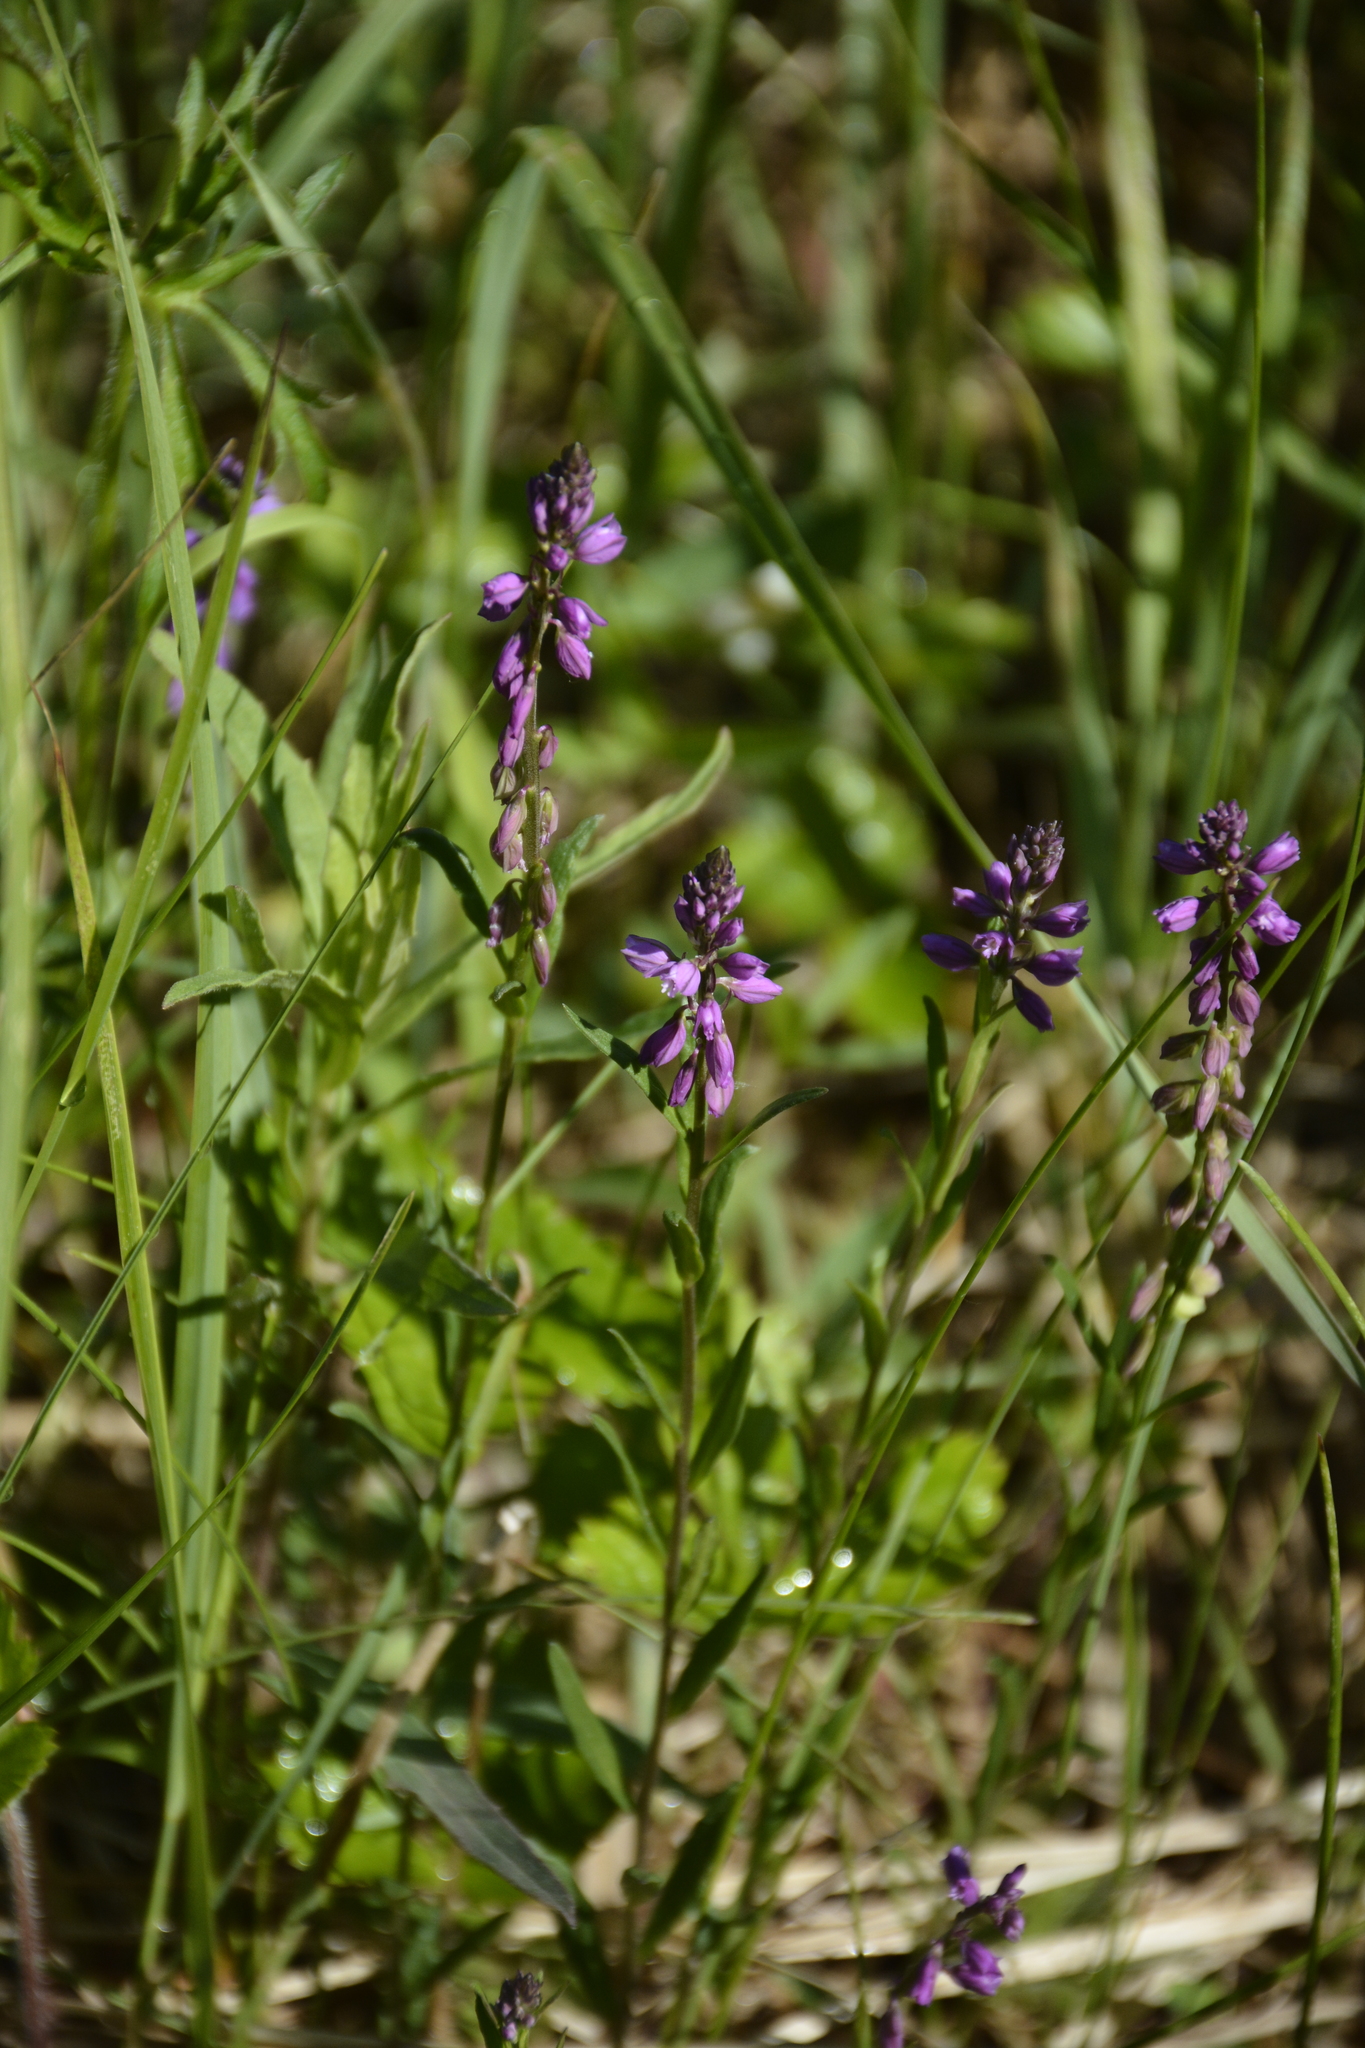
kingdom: Plantae
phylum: Tracheophyta
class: Magnoliopsida
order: Fabales
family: Polygalaceae
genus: Polygala
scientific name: Polygala comosa
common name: Tufted milkwort
